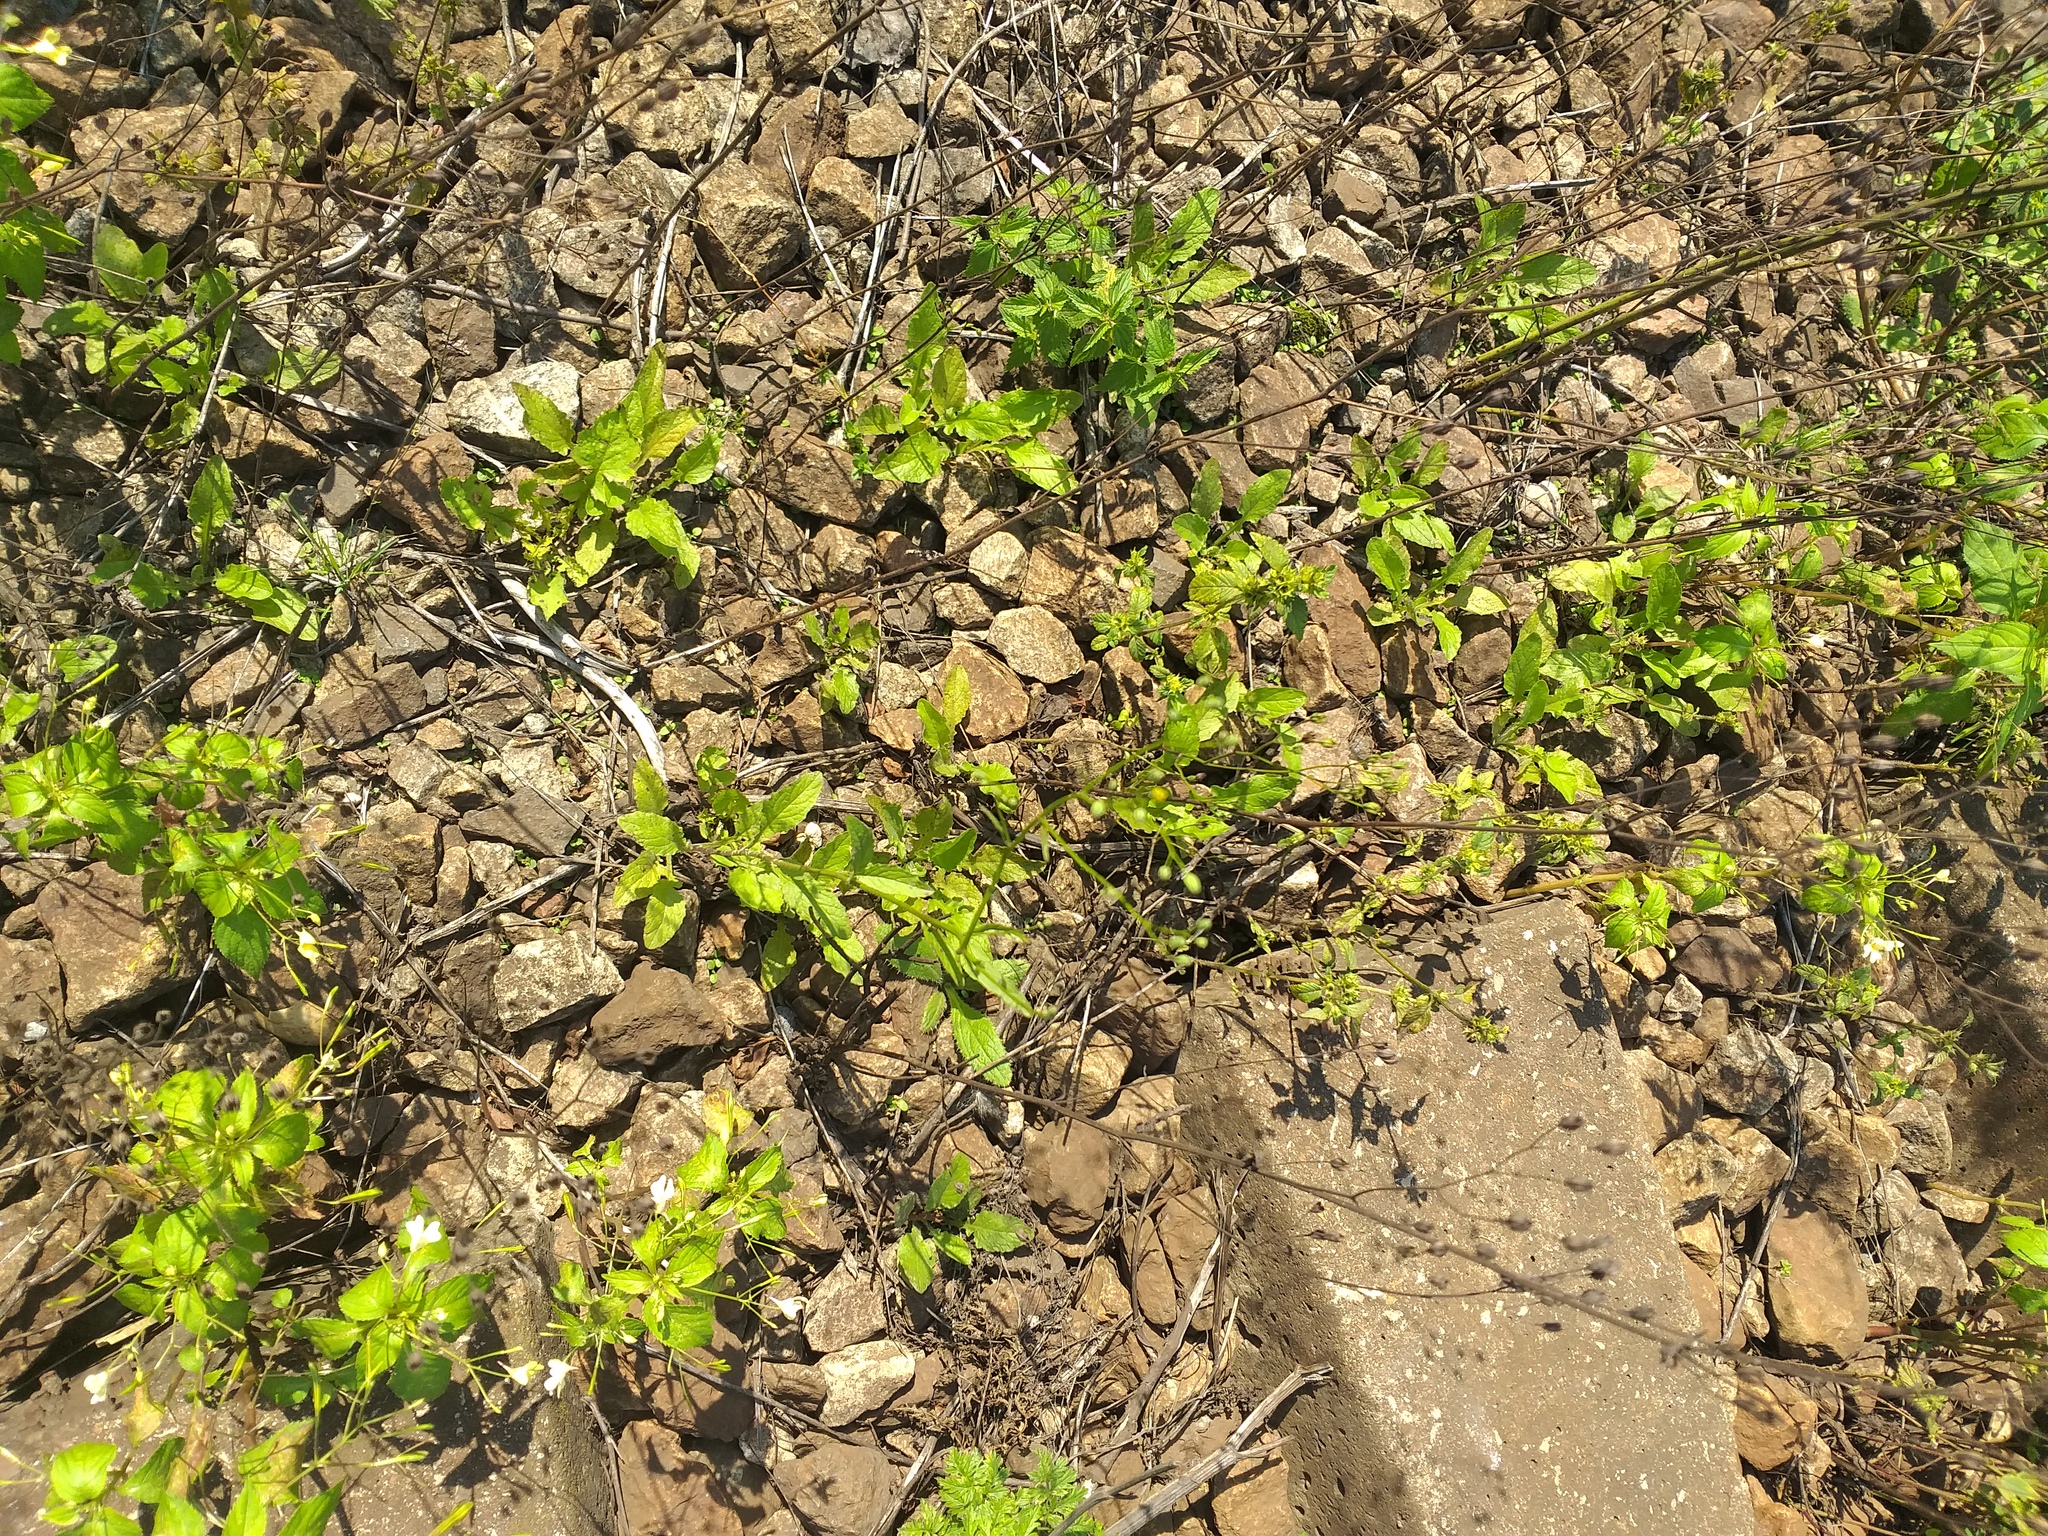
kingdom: Plantae
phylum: Tracheophyta
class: Magnoliopsida
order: Asterales
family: Asteraceae
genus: Lapsana
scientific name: Lapsana communis
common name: Nipplewort
